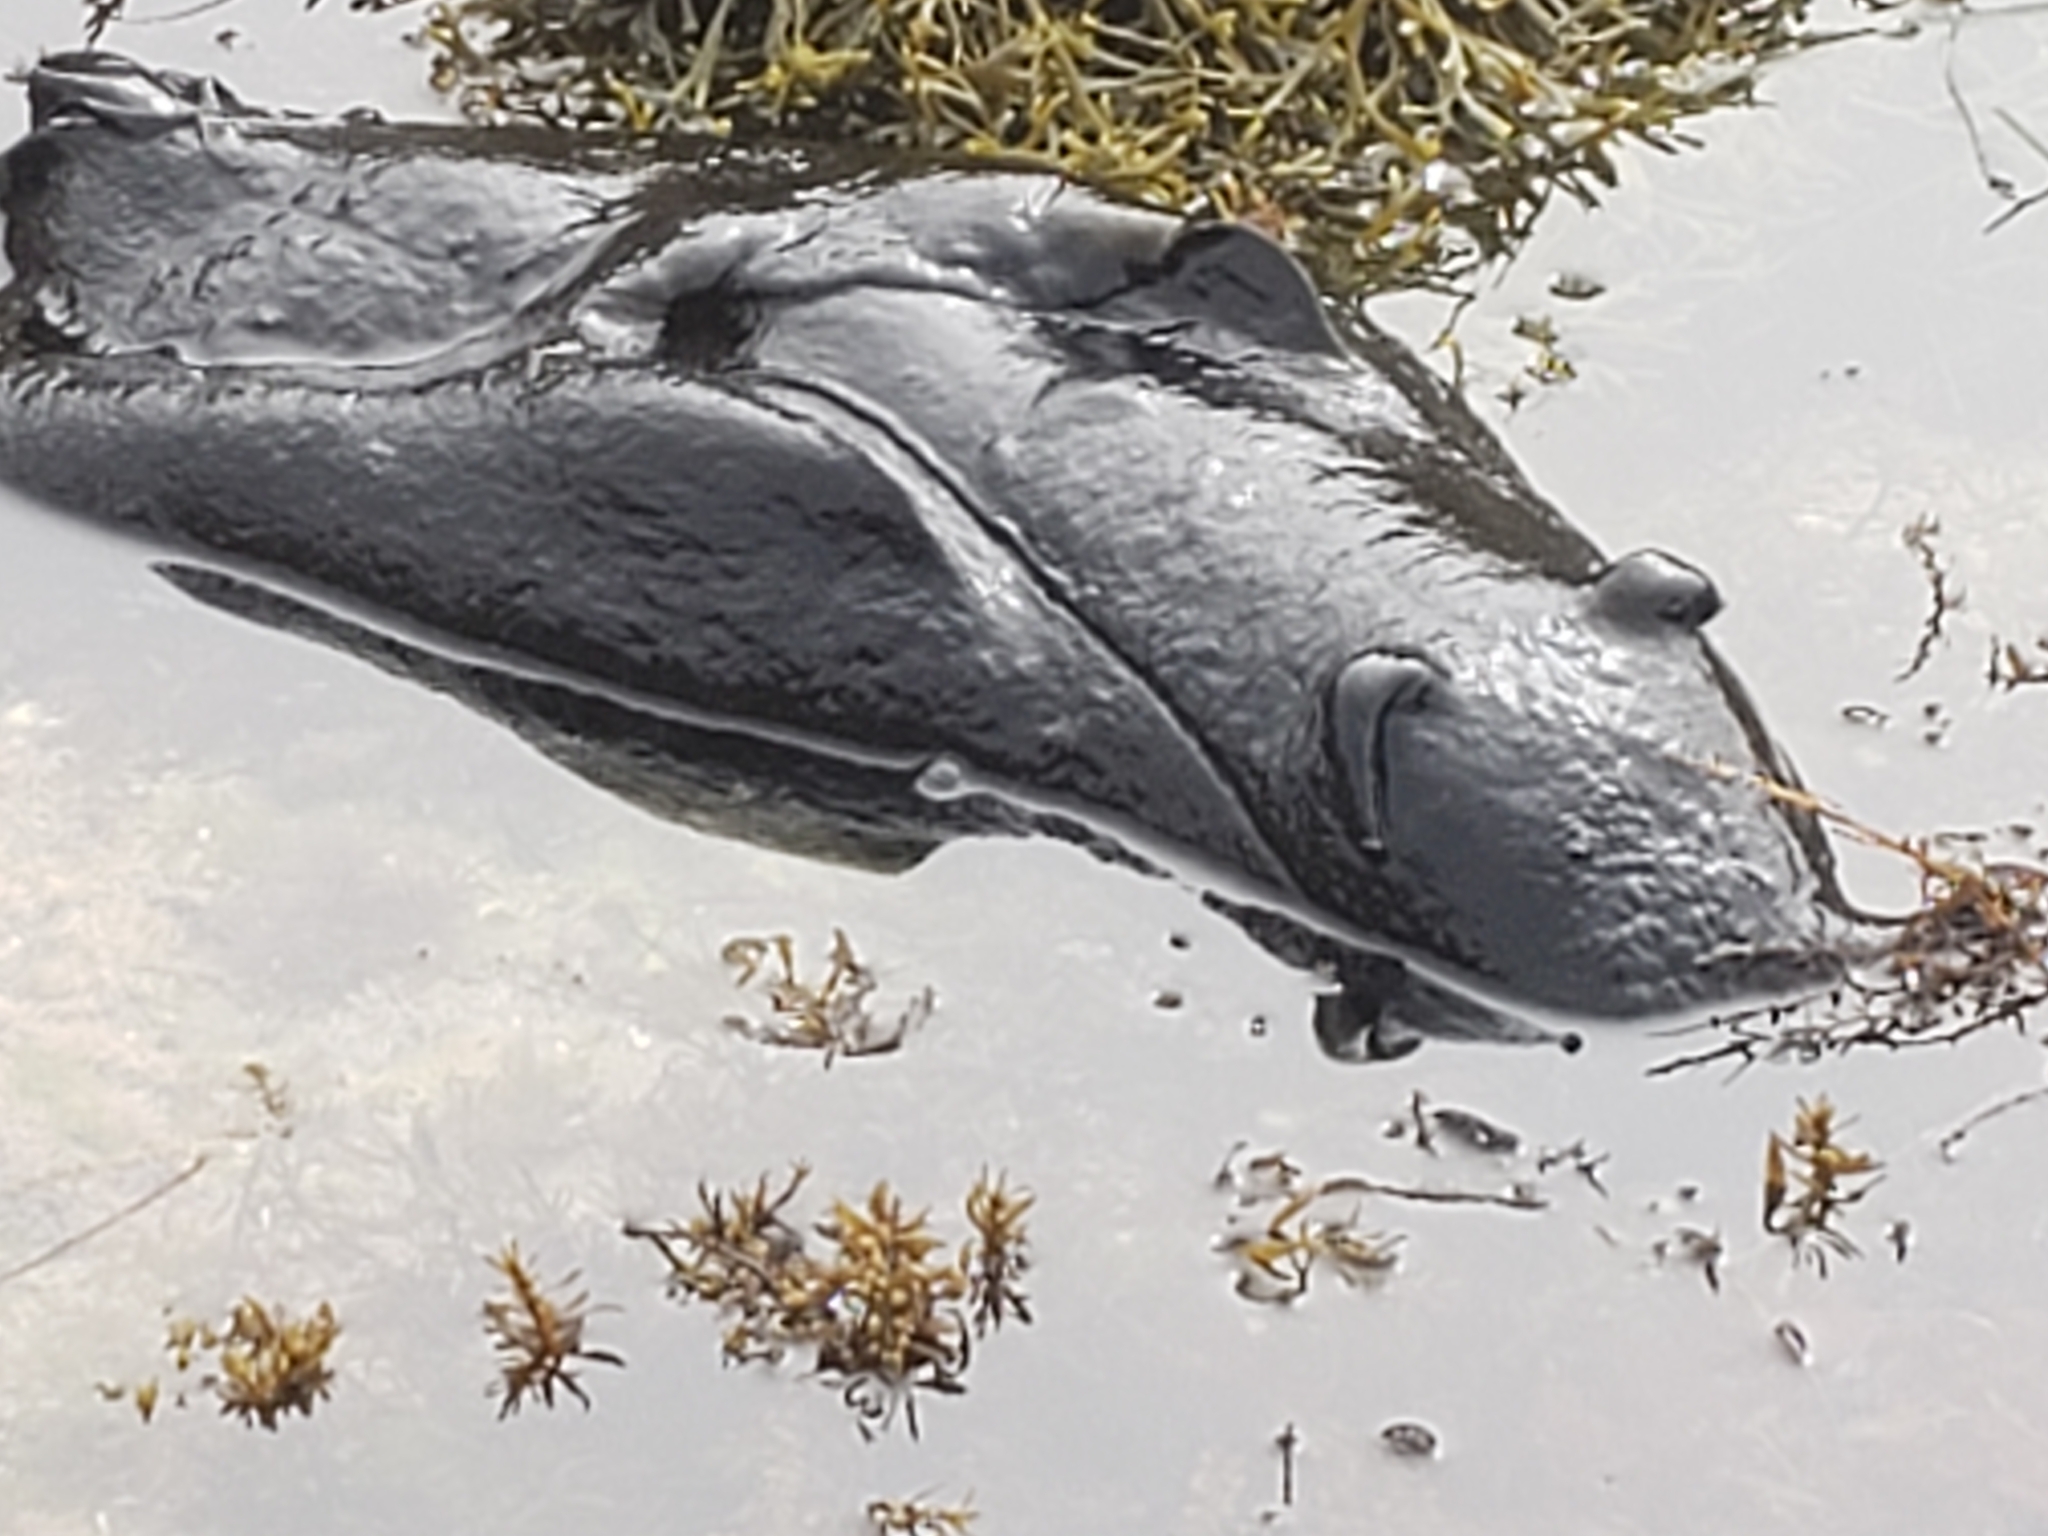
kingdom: Animalia
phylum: Mollusca
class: Gastropoda
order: Aplysiida
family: Aplysiidae
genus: Aplysia
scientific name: Aplysia vaccaria
